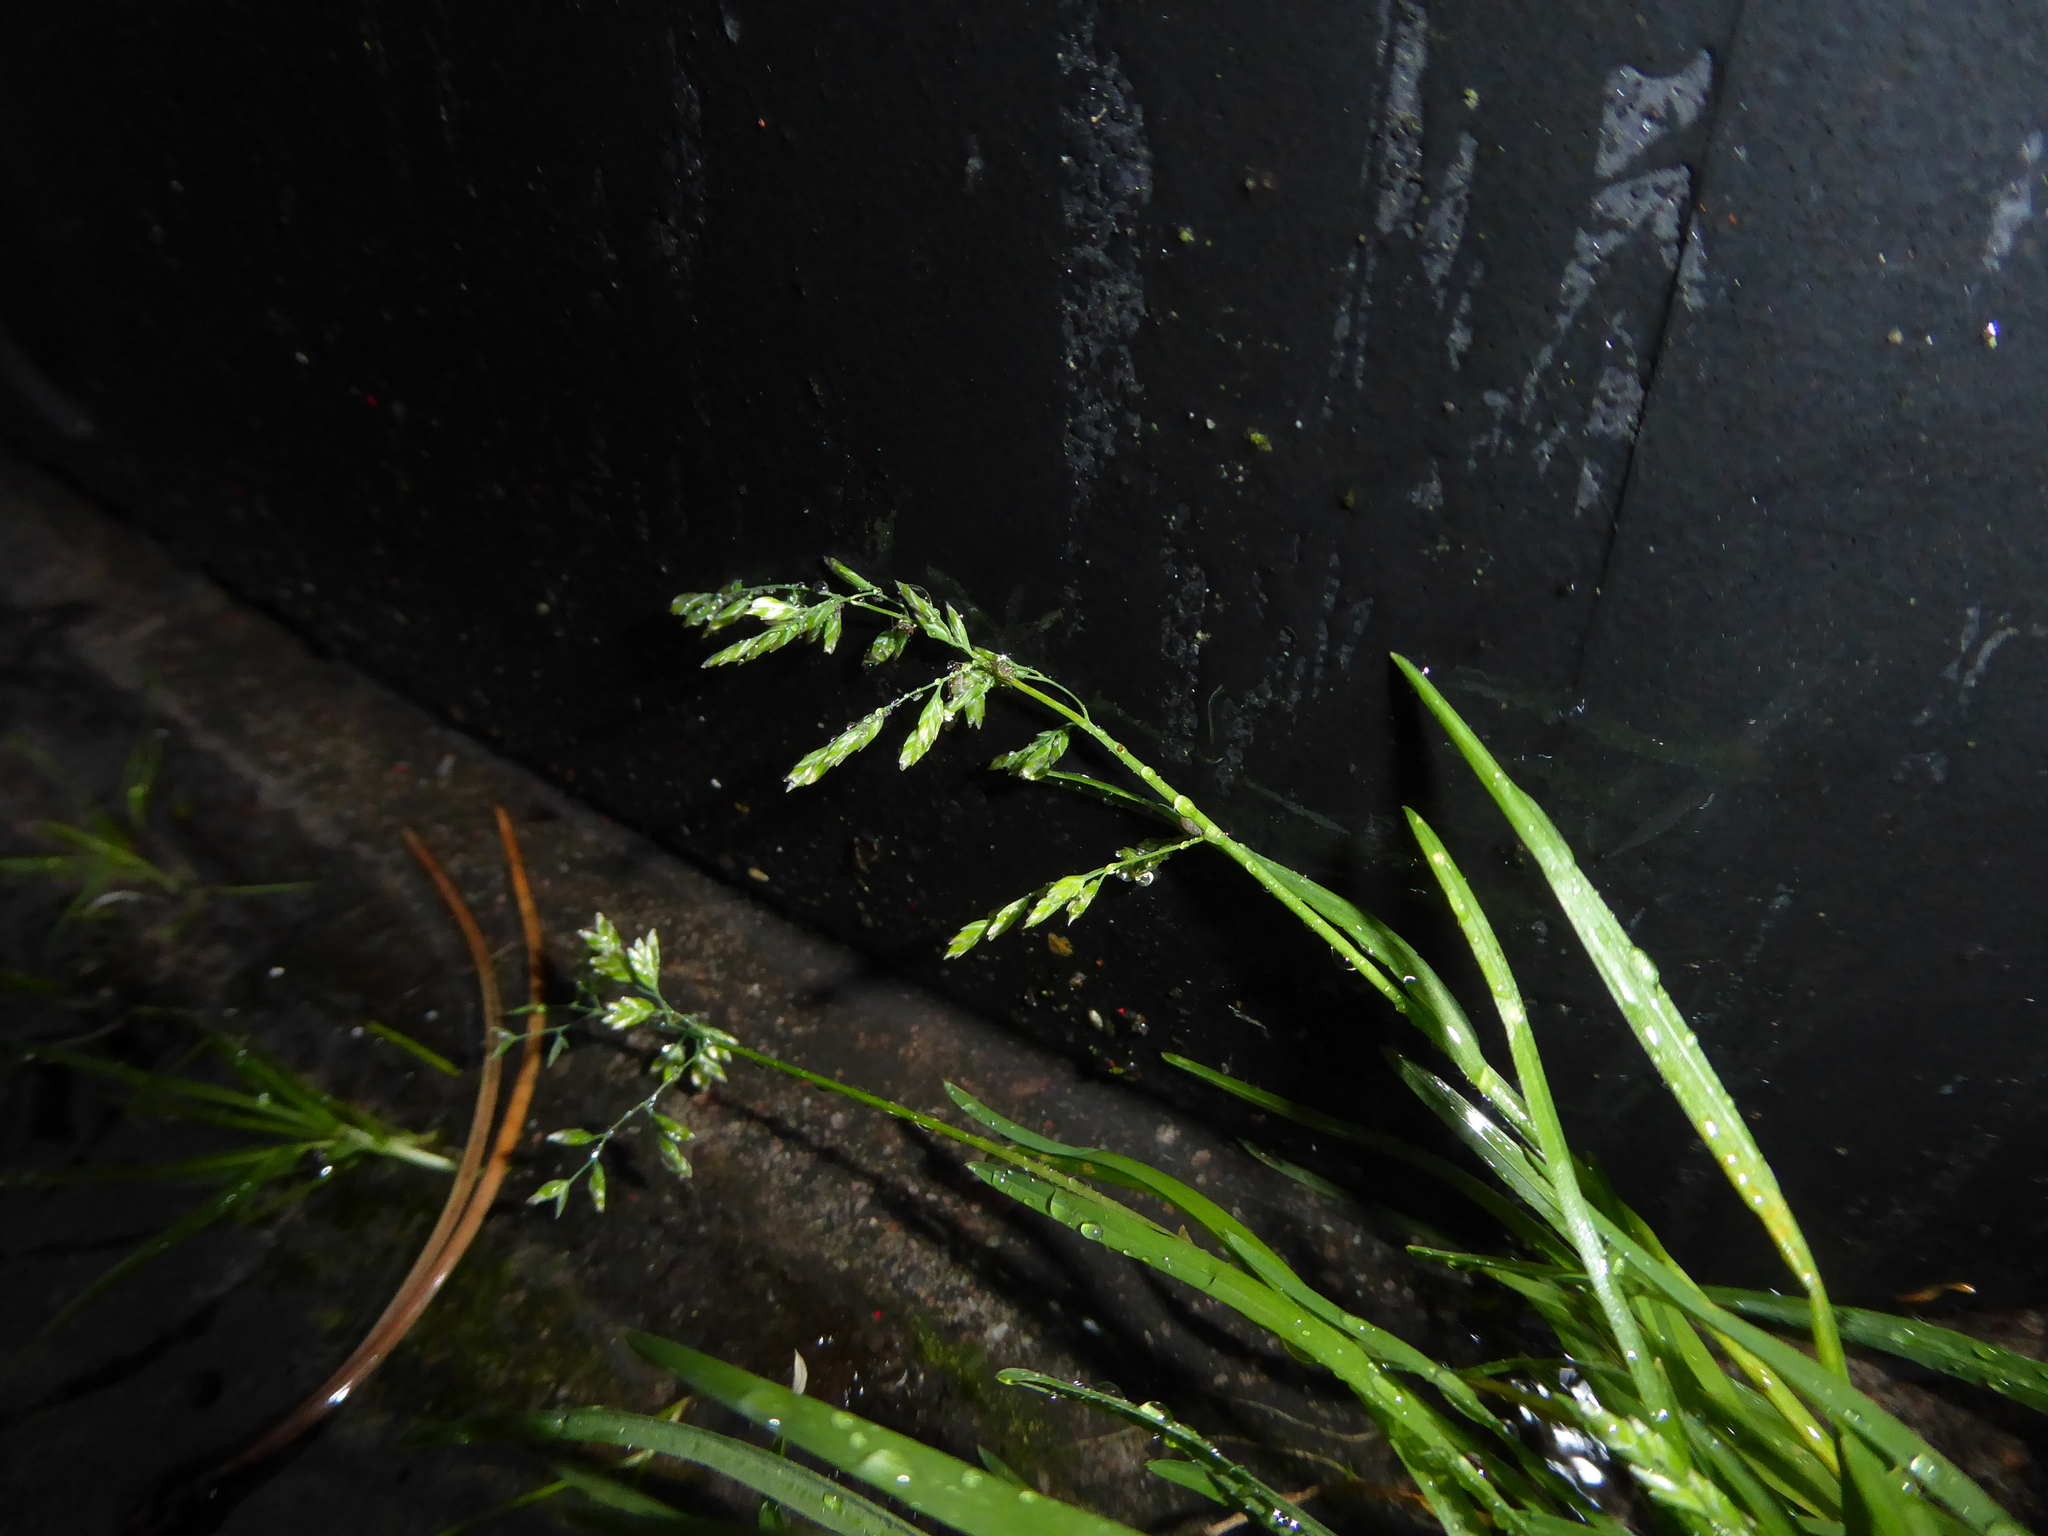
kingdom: Plantae
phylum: Tracheophyta
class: Liliopsida
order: Poales
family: Poaceae
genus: Poa
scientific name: Poa annua
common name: Annual bluegrass
